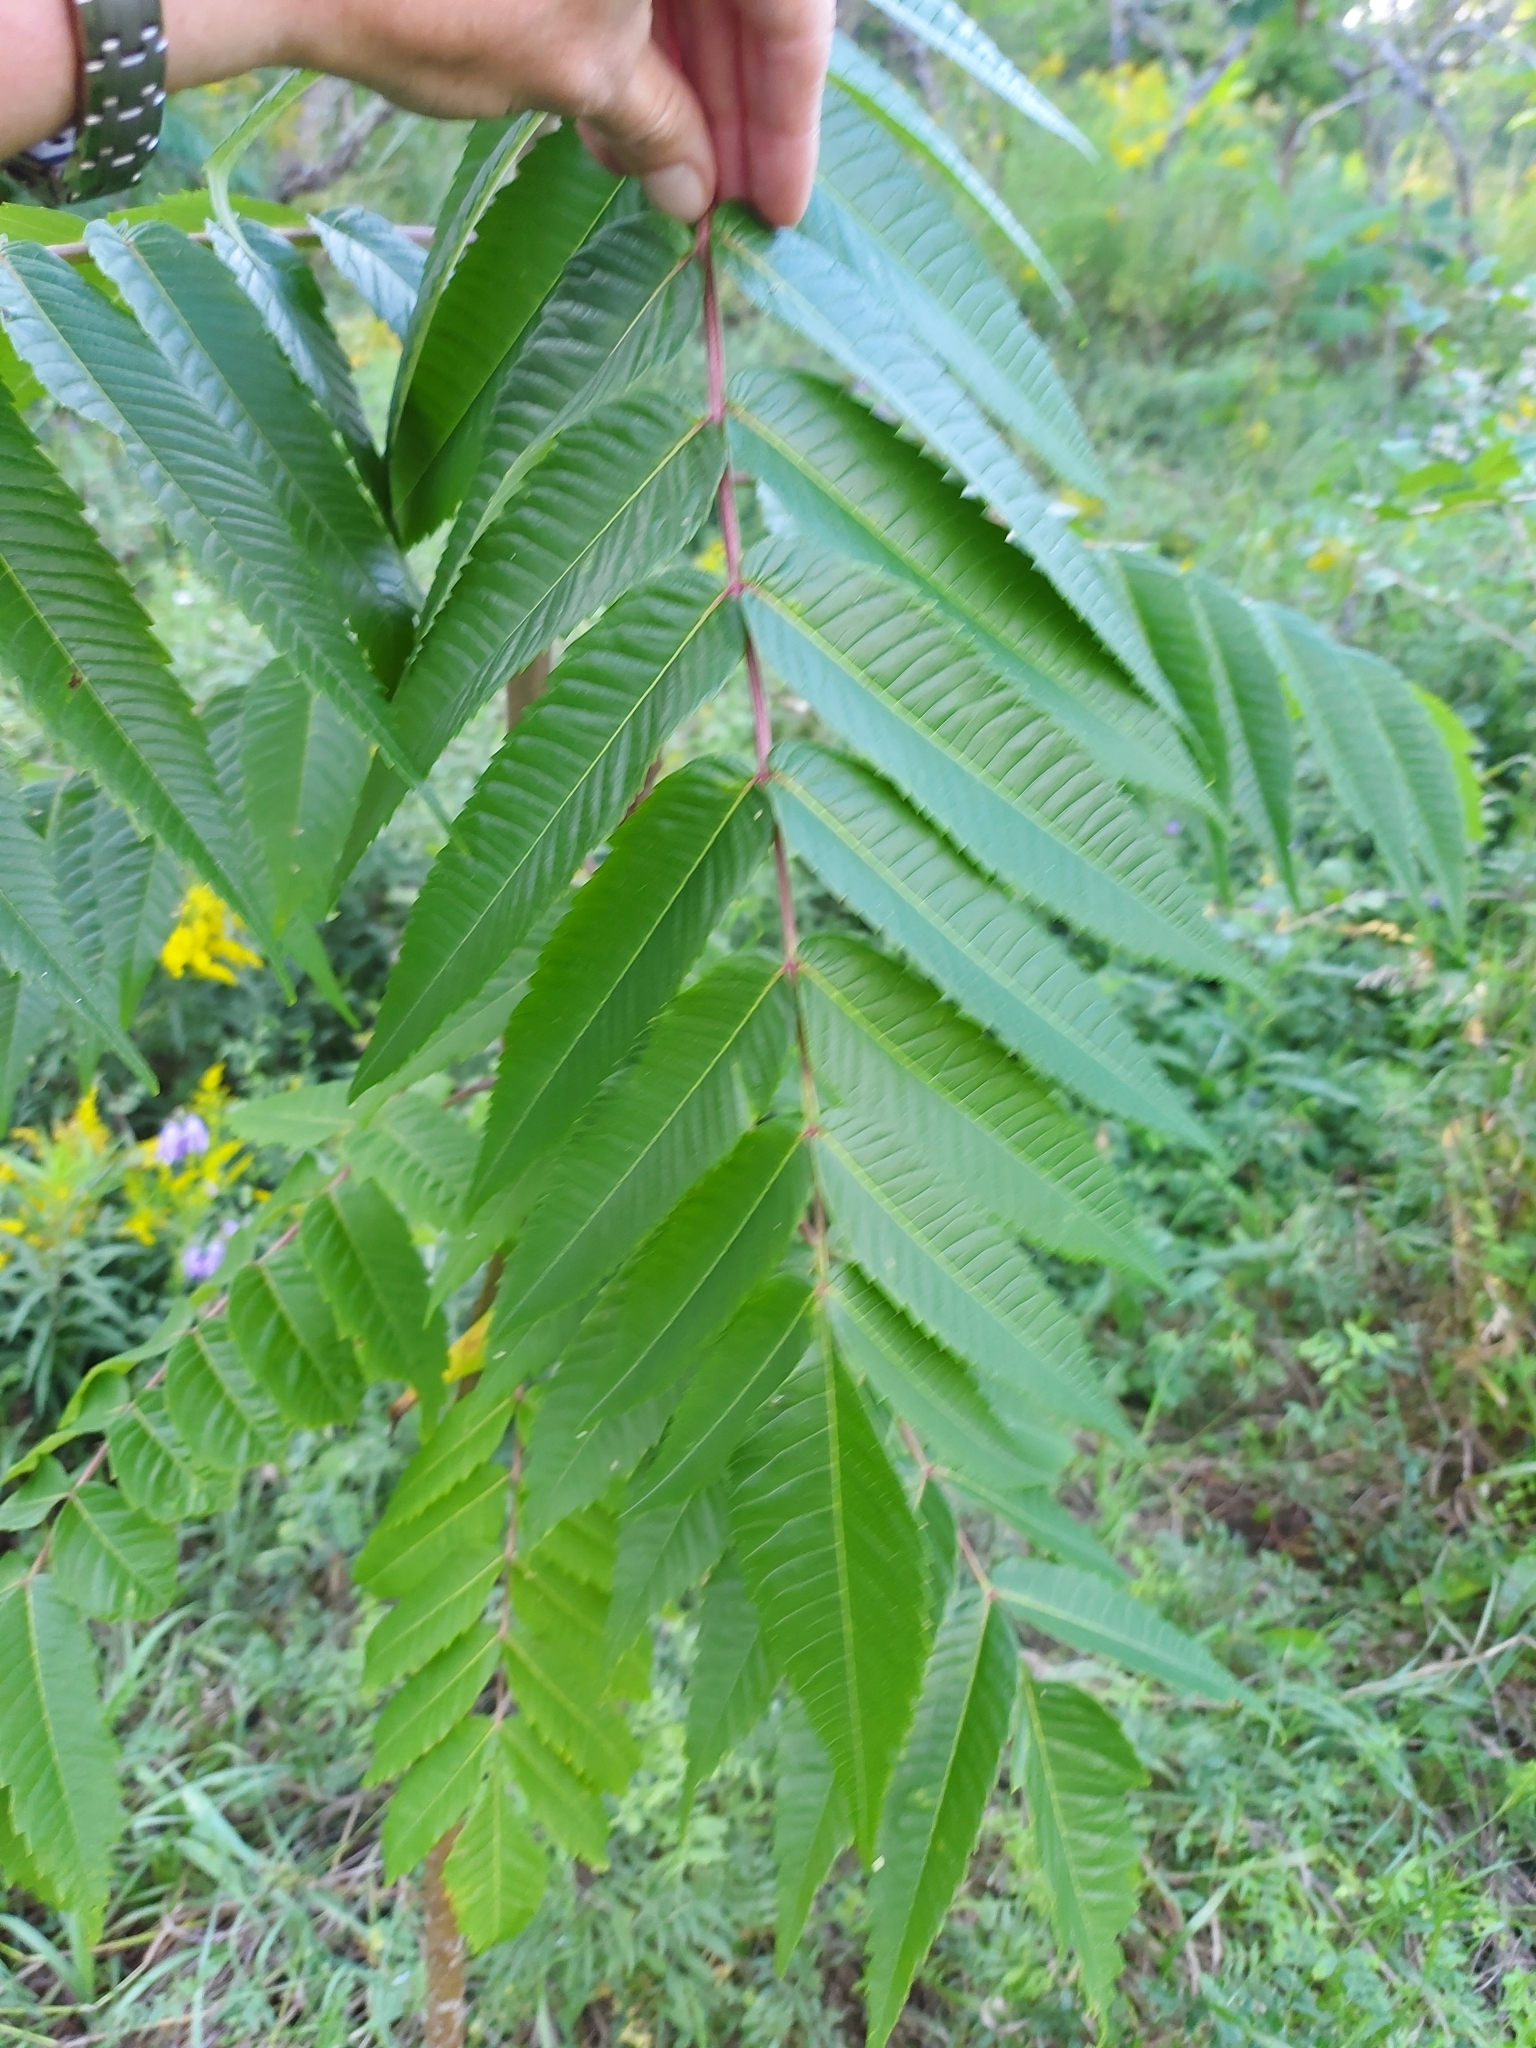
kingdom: Plantae
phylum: Tracheophyta
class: Magnoliopsida
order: Sapindales
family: Anacardiaceae
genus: Rhus
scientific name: Rhus typhina
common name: Staghorn sumac
